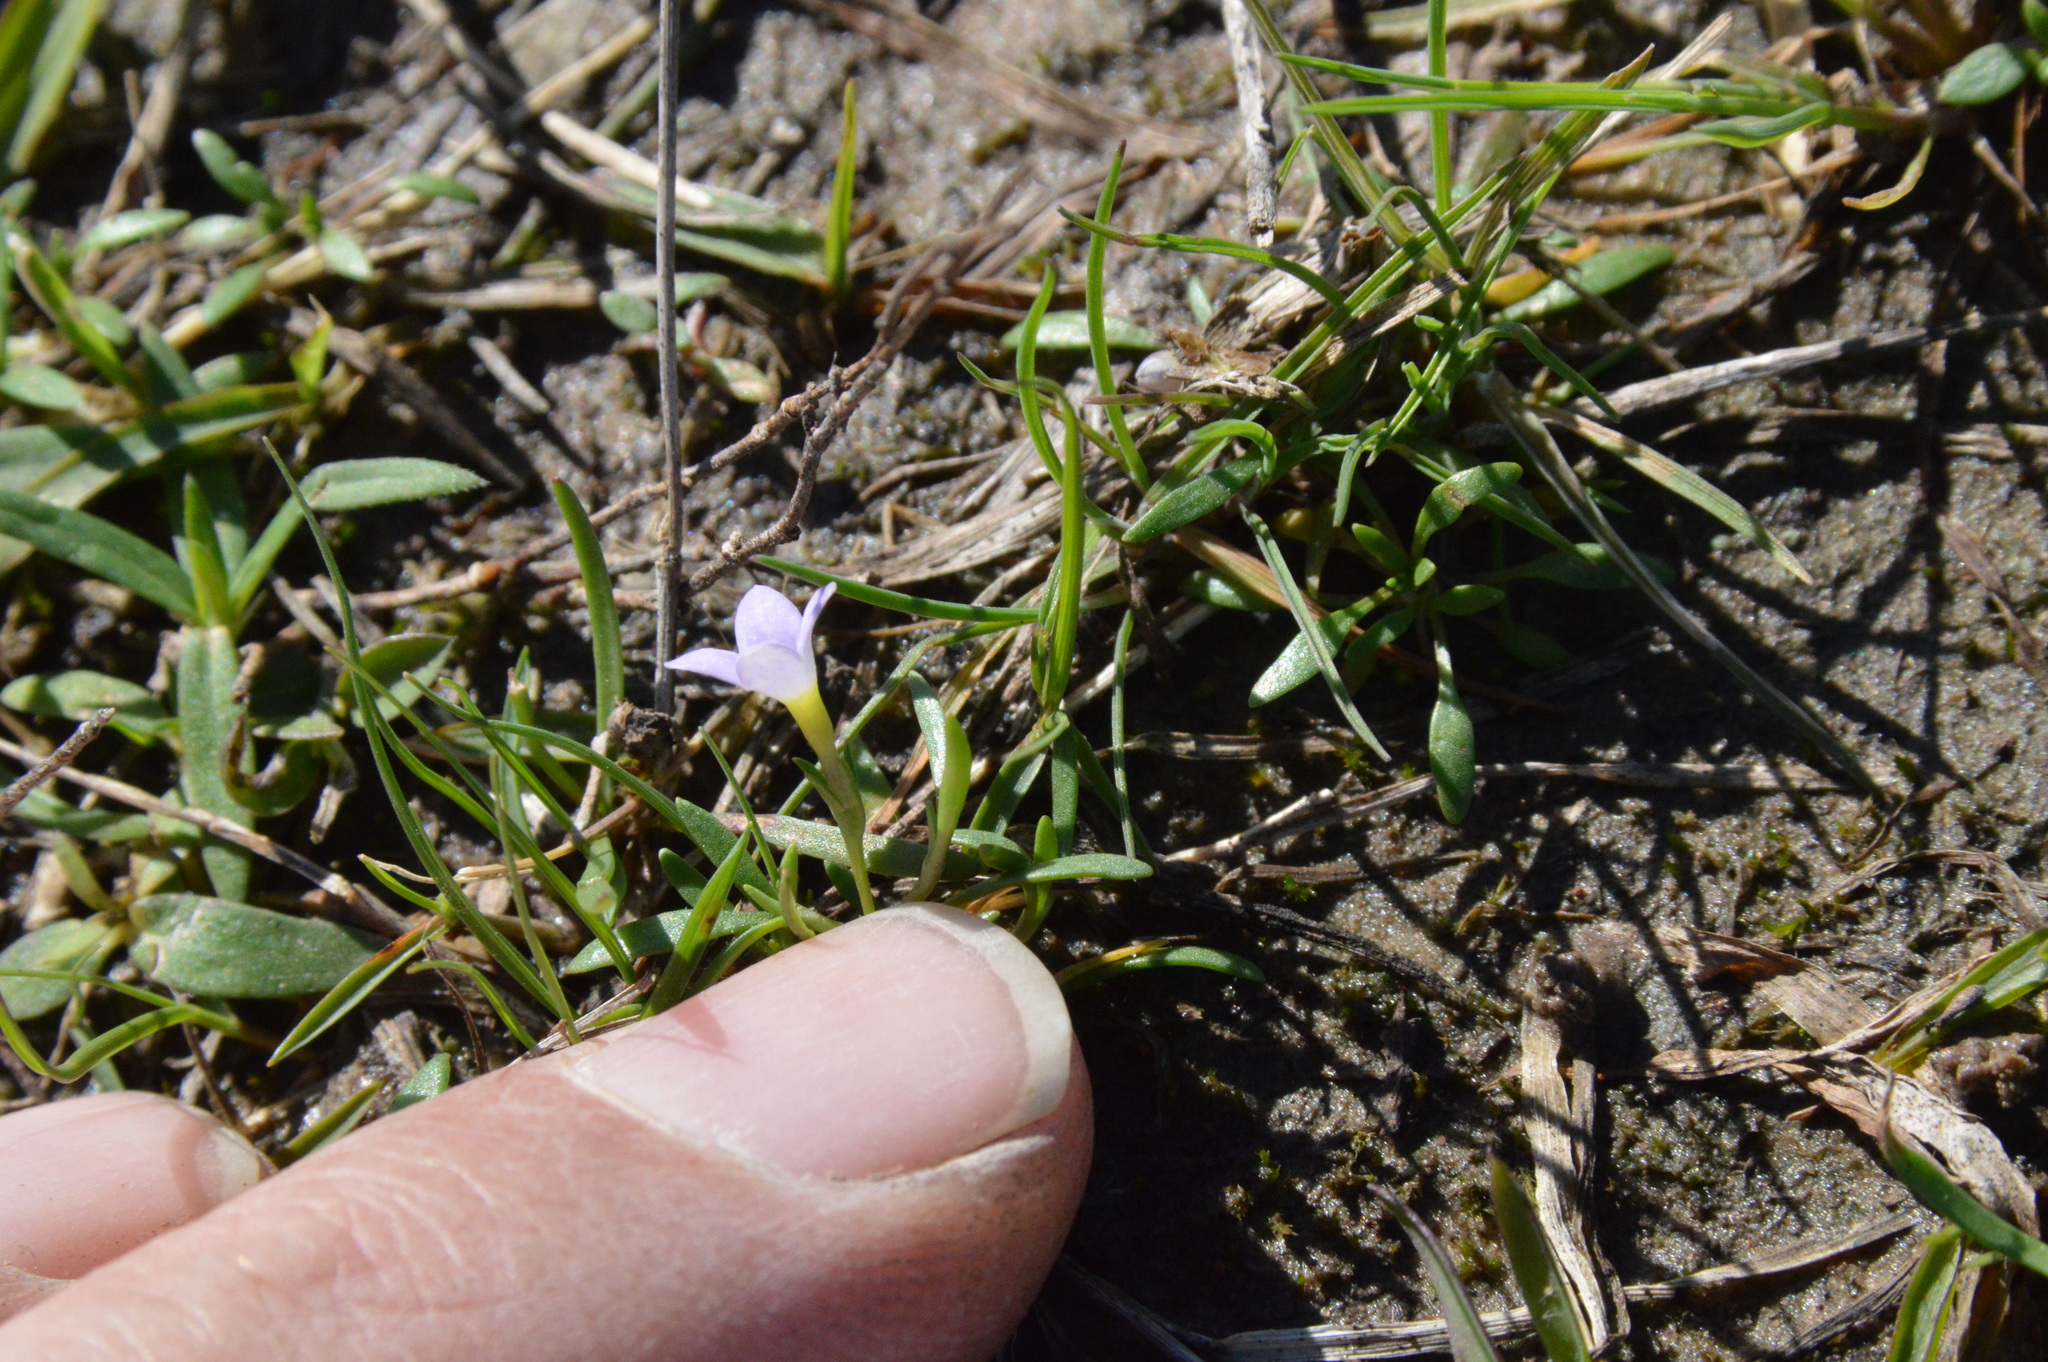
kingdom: Plantae
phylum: Tracheophyta
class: Magnoliopsida
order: Gentianales
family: Rubiaceae
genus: Houstonia
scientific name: Houstonia rosea
